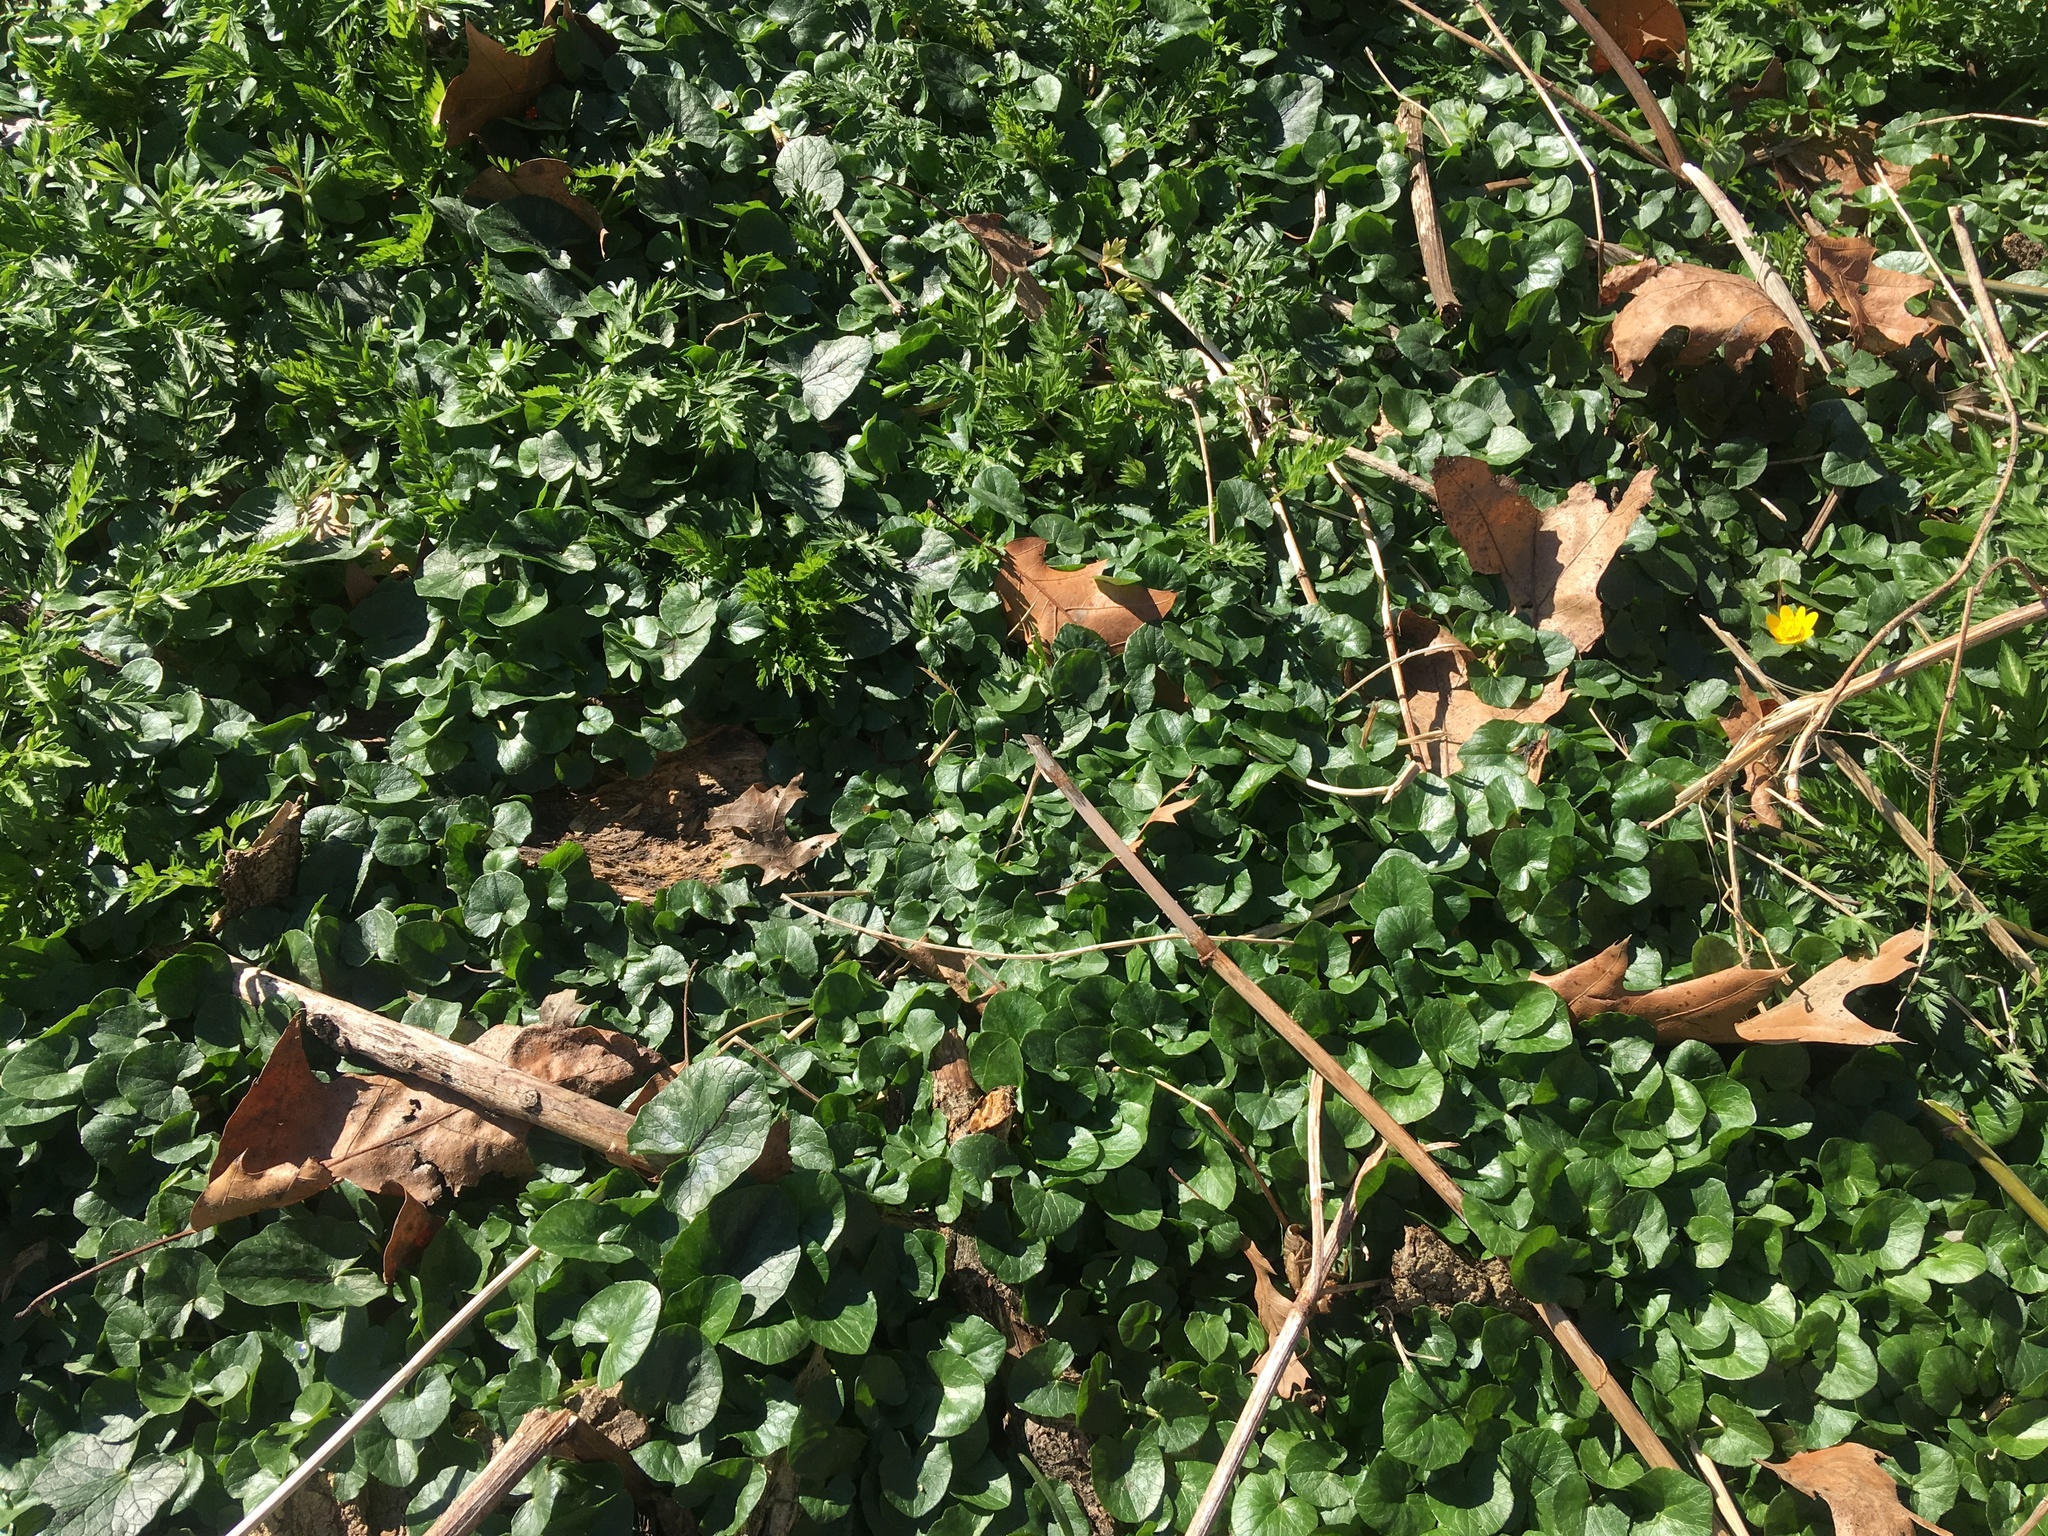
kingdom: Plantae
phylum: Tracheophyta
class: Magnoliopsida
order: Ranunculales
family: Ranunculaceae
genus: Ficaria
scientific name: Ficaria verna
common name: Lesser celandine
